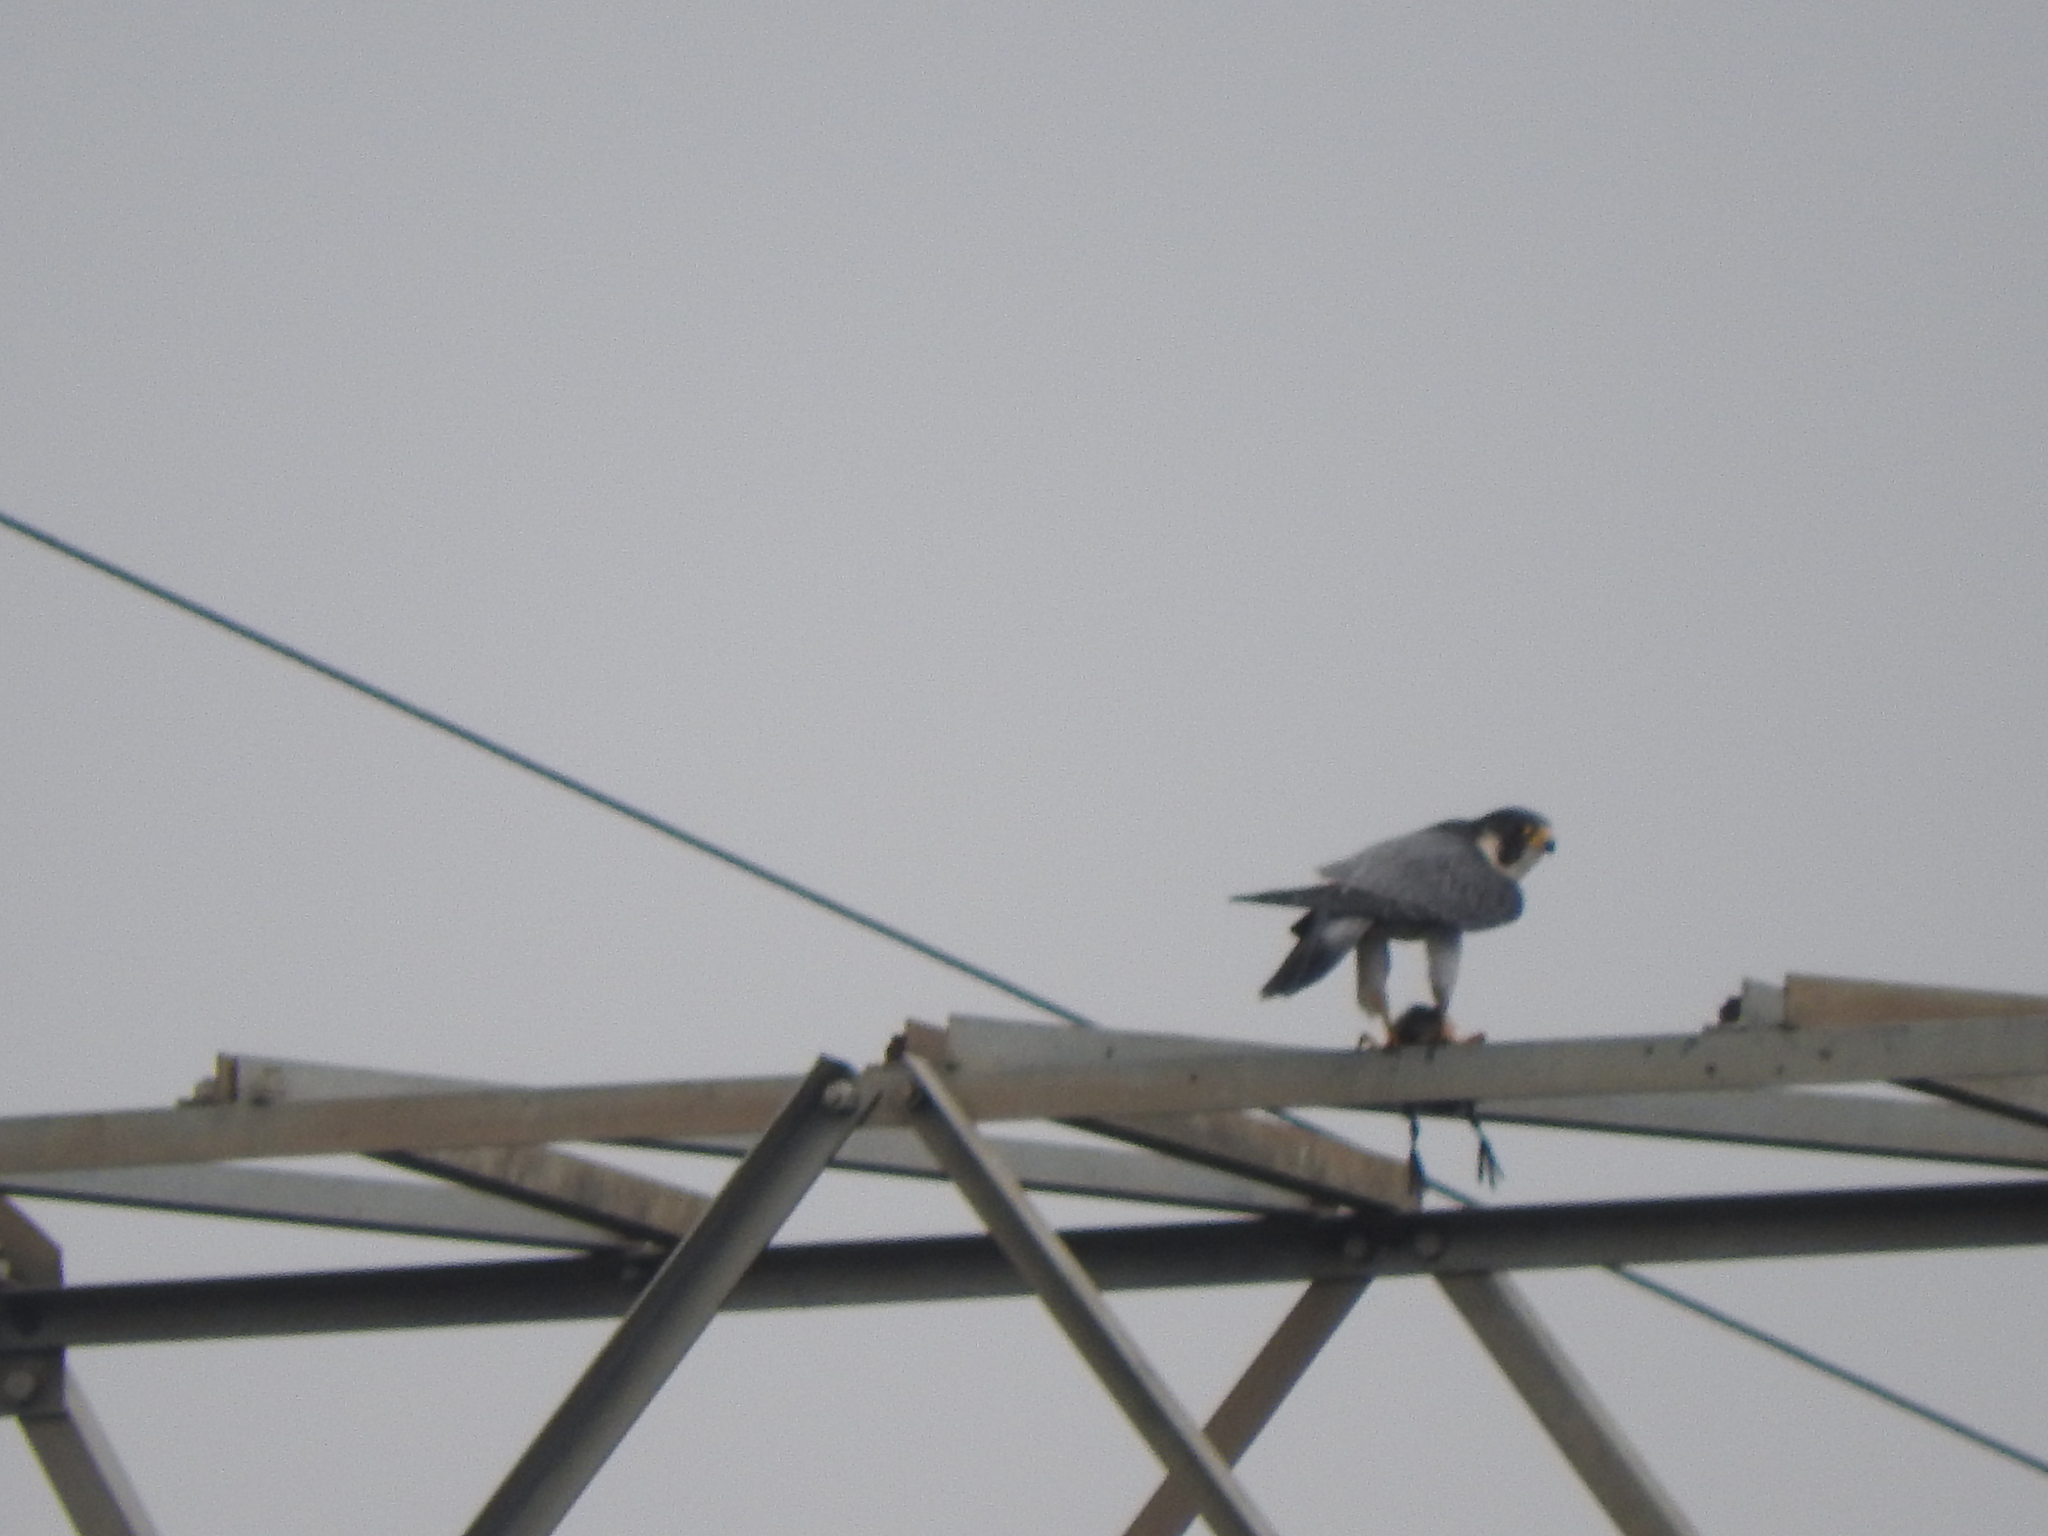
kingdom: Animalia
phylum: Chordata
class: Aves
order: Falconiformes
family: Falconidae
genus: Falco
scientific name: Falco peregrinus
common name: Peregrine falcon
